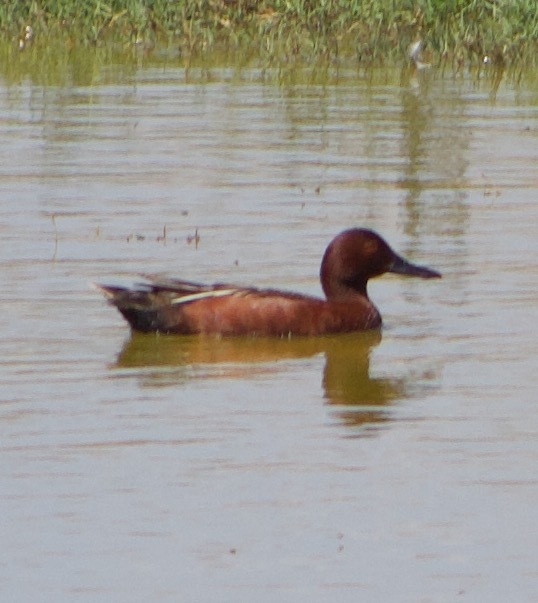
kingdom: Animalia
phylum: Chordata
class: Aves
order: Anseriformes
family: Anatidae
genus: Spatula
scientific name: Spatula cyanoptera
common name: Cinnamon teal
